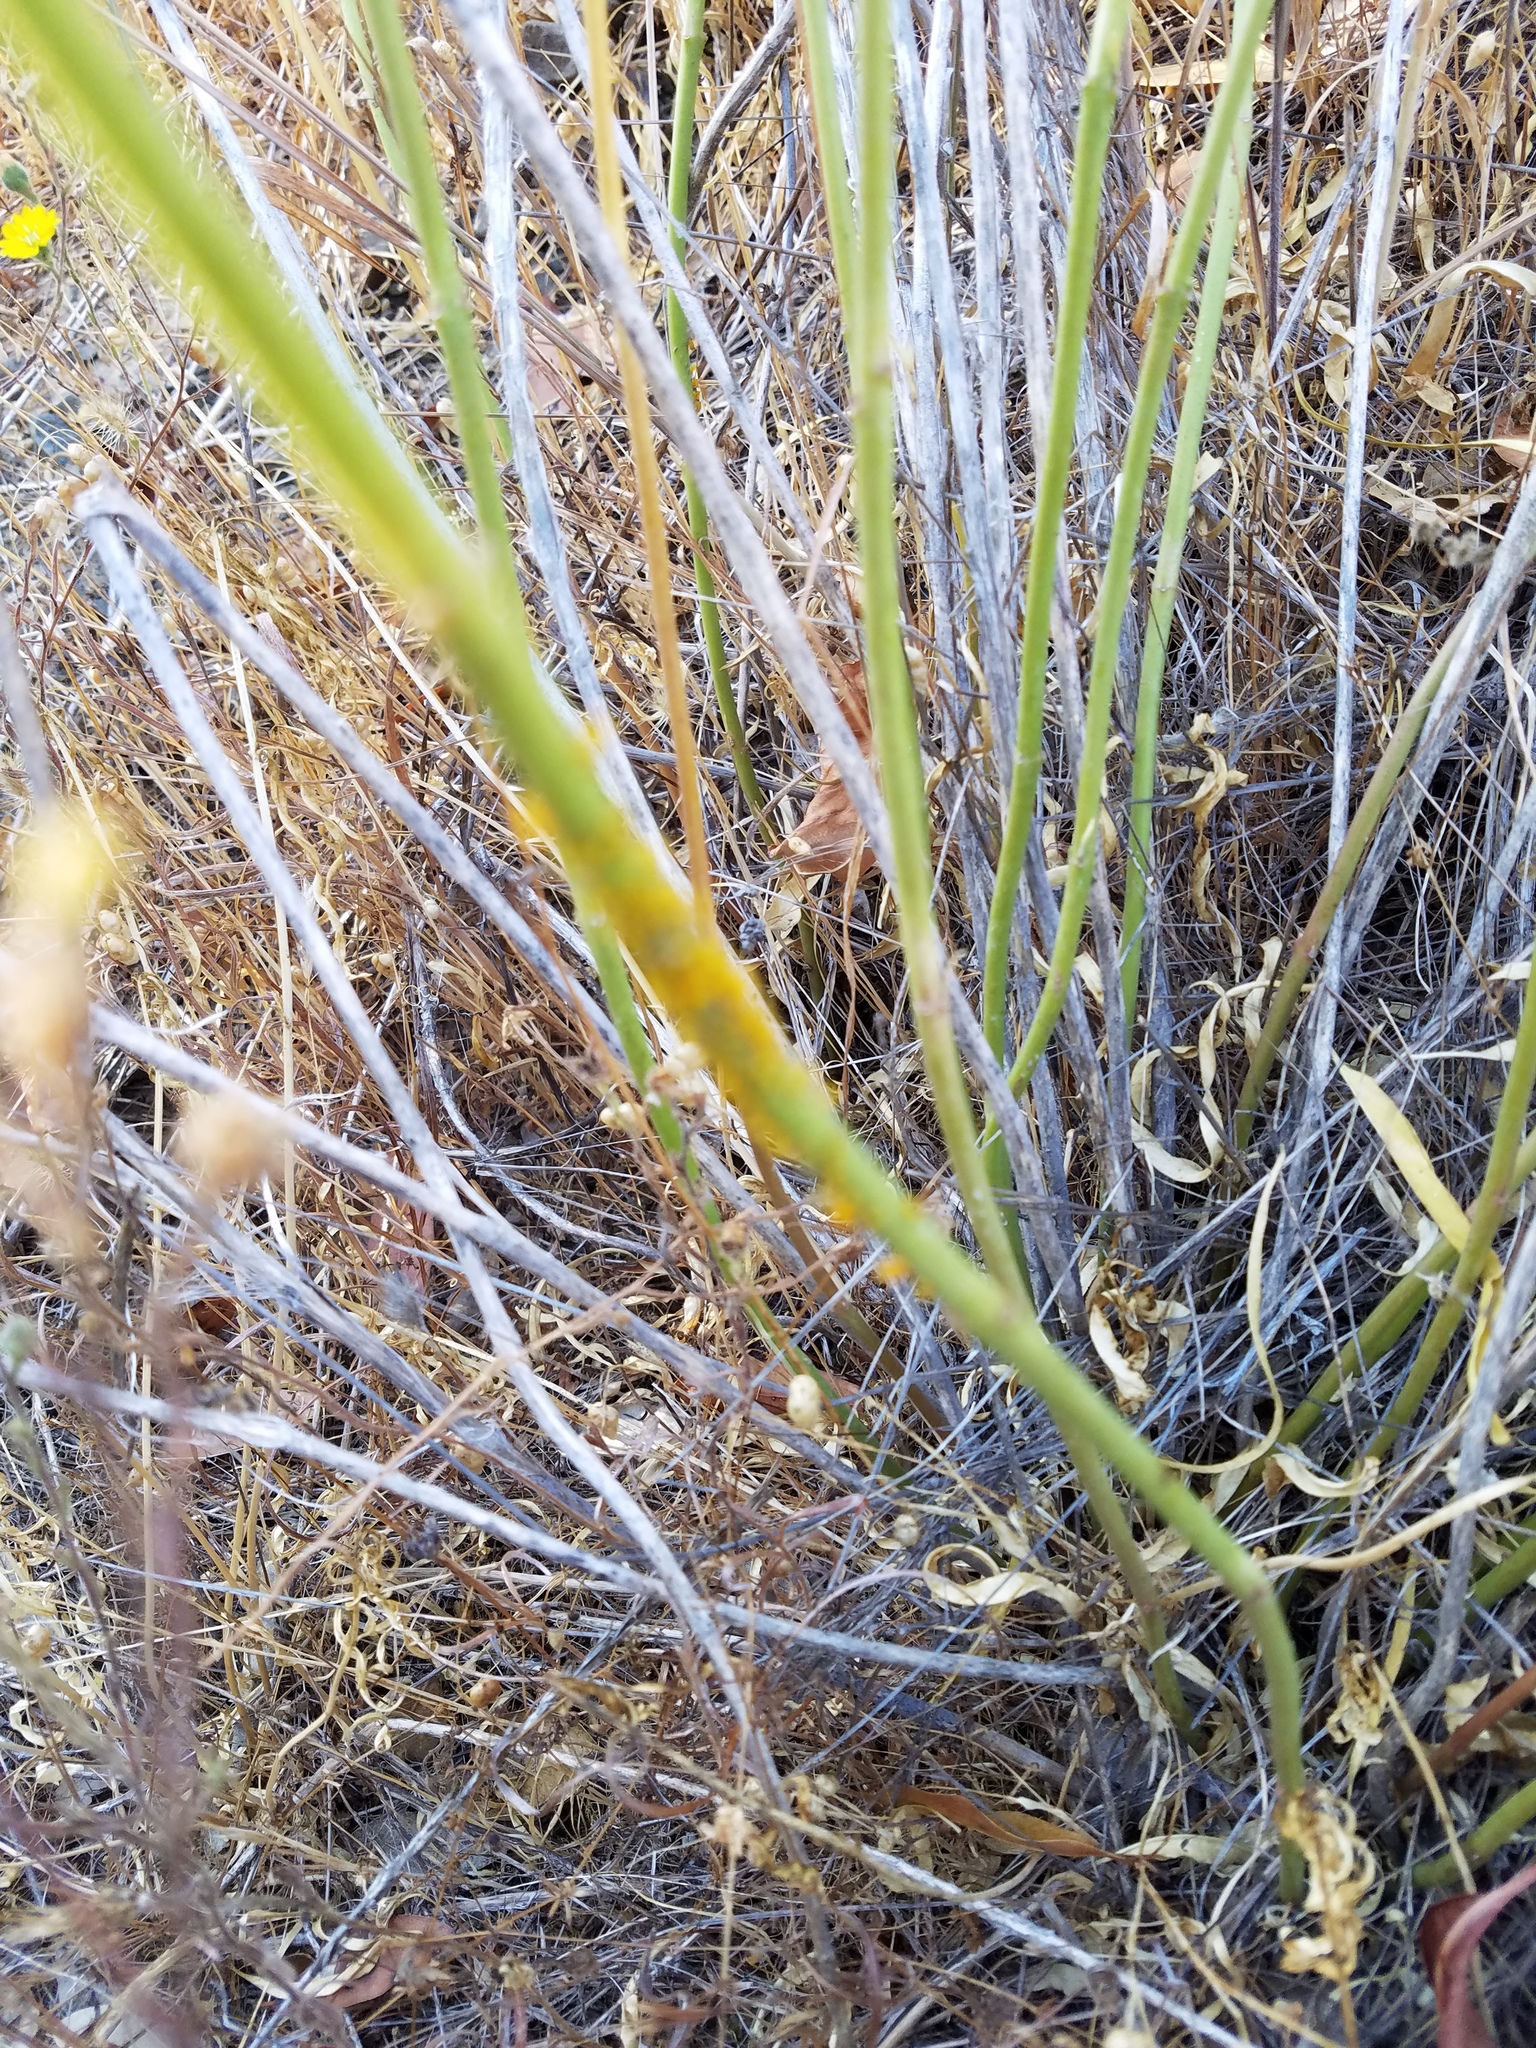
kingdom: Plantae
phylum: Tracheophyta
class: Magnoliopsida
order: Gentianales
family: Apocynaceae
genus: Asclepias
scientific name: Asclepias fascicularis
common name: Mexican milkweed
